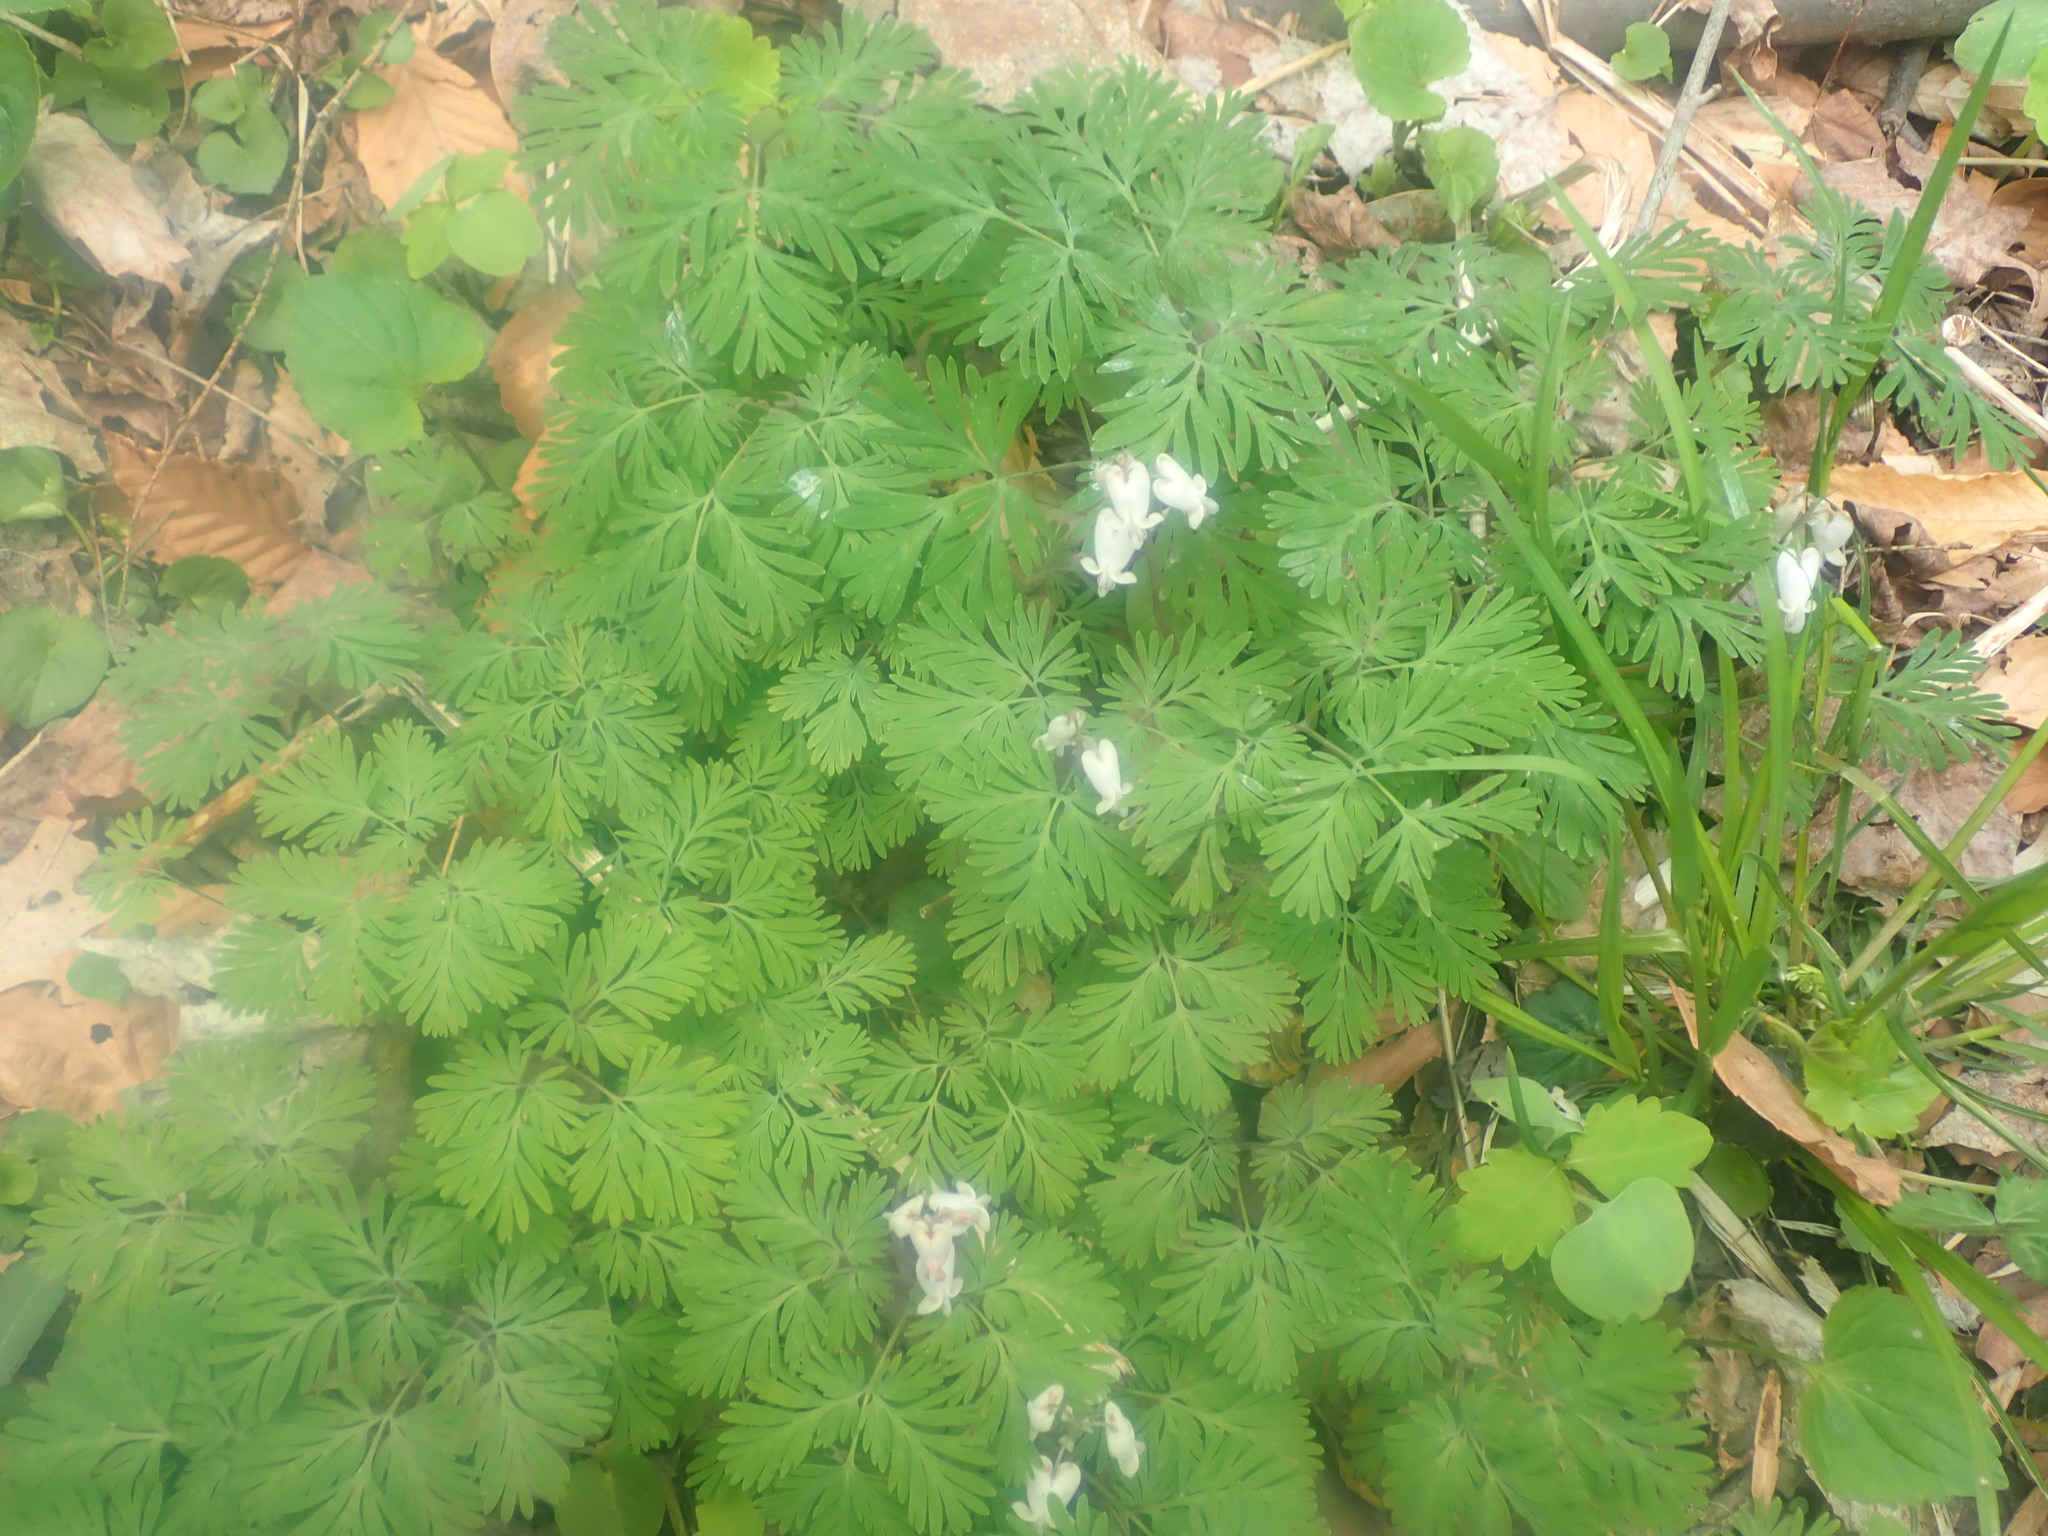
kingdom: Plantae
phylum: Tracheophyta
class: Magnoliopsida
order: Ranunculales
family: Papaveraceae
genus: Dicentra
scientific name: Dicentra canadensis
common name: Squirrel-corn
